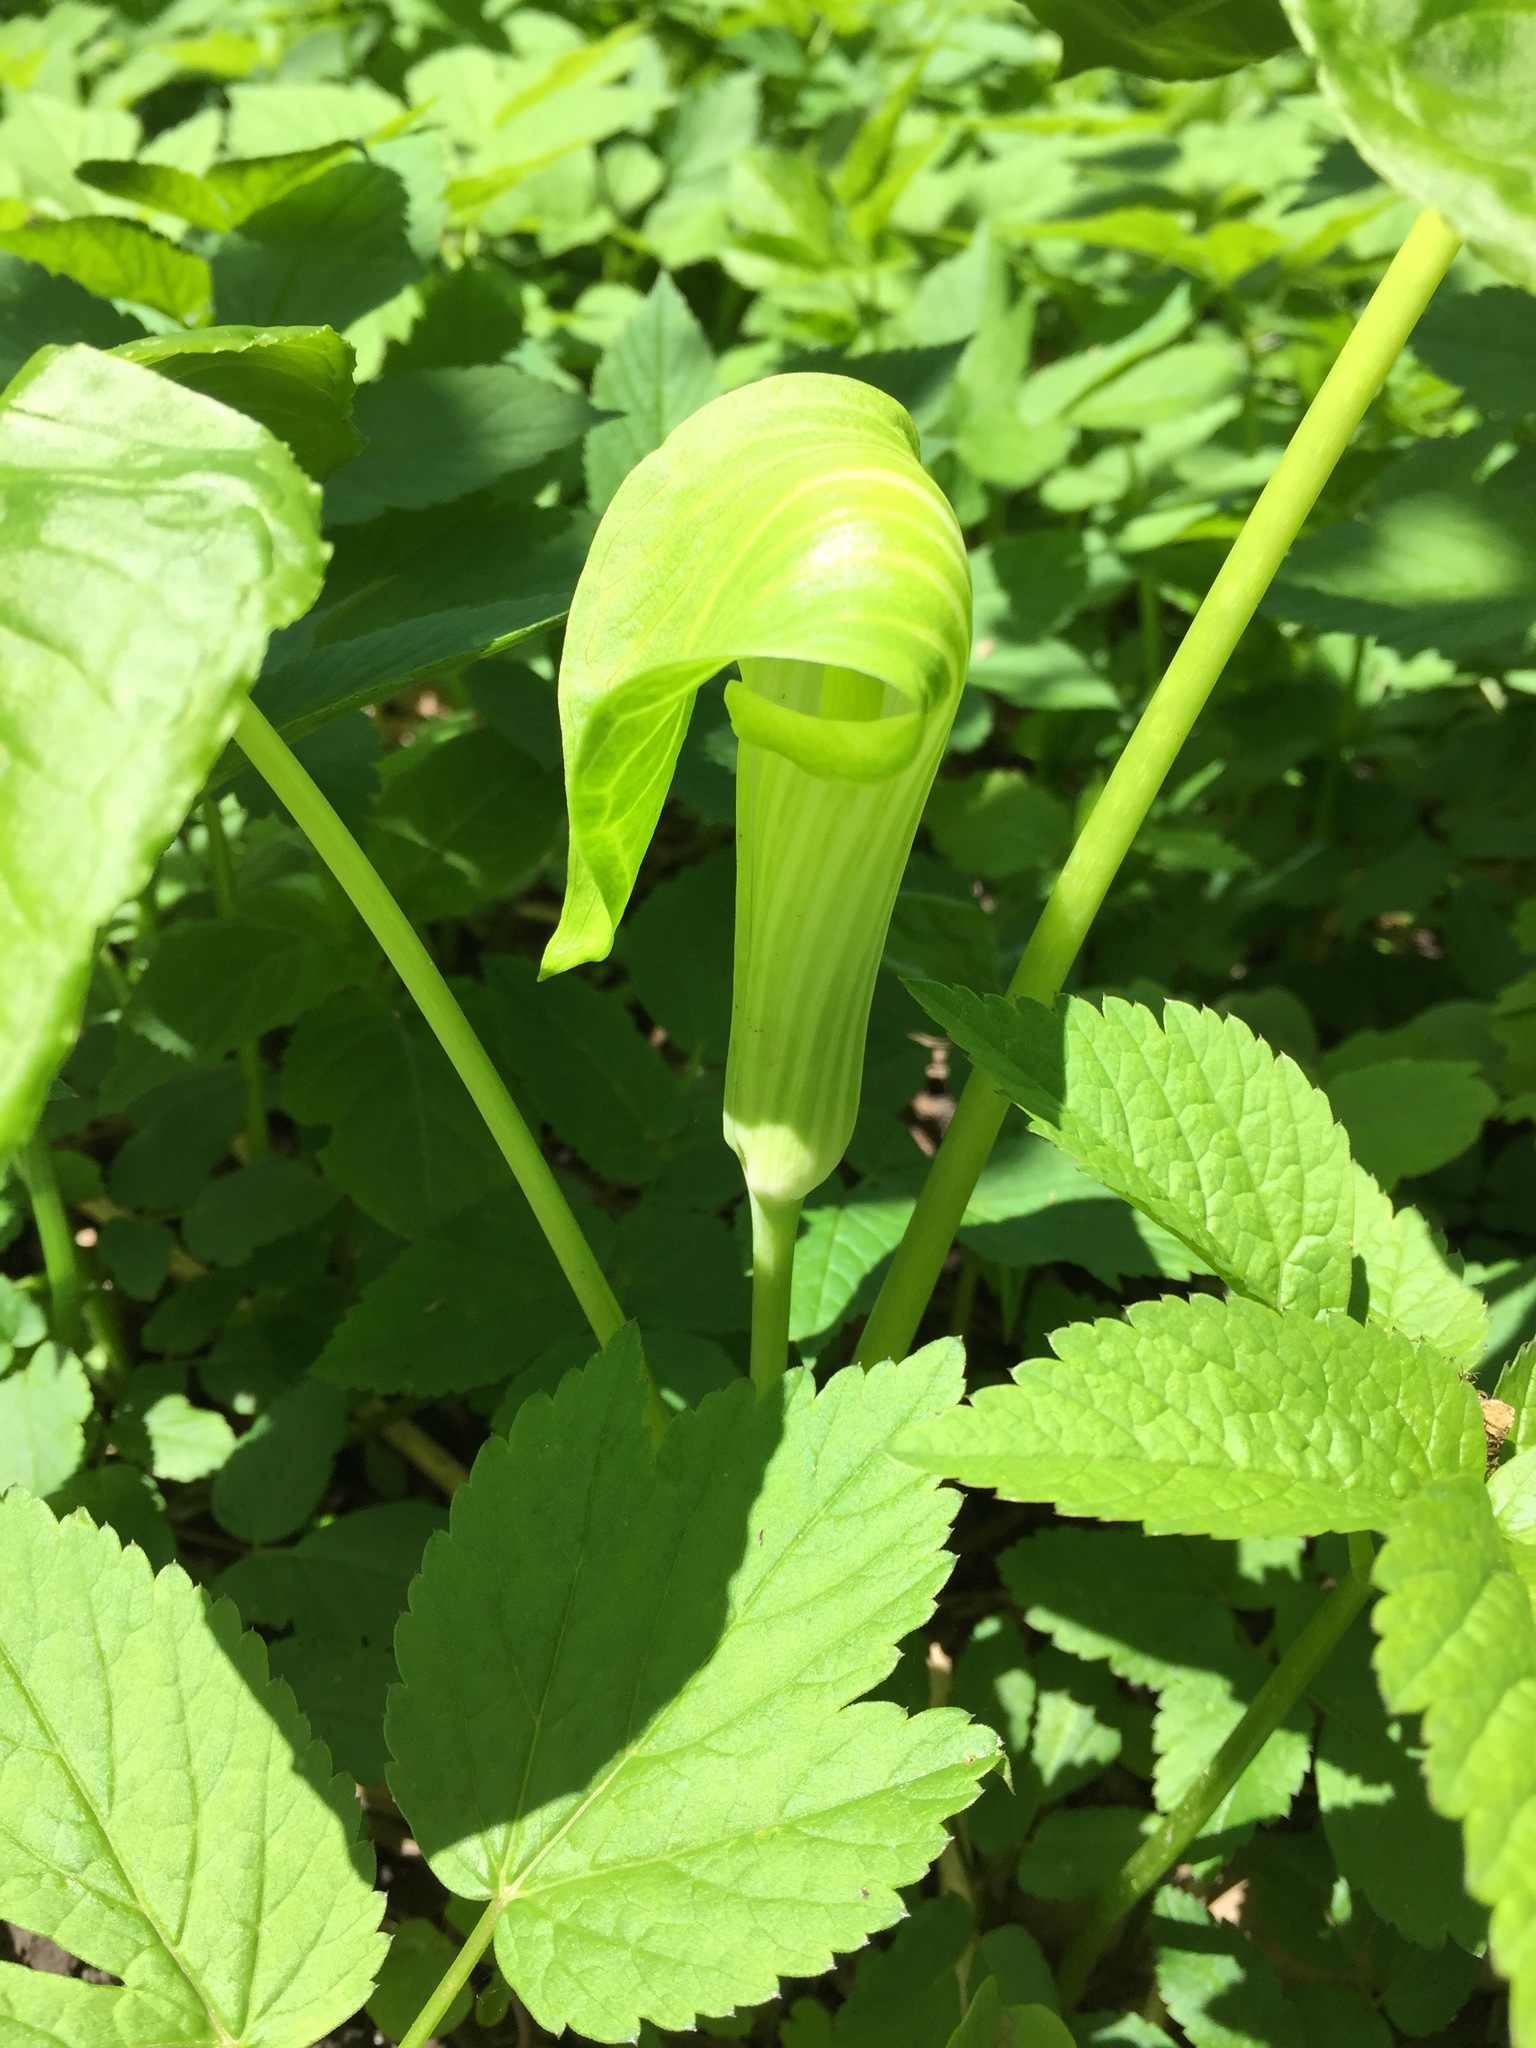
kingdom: Plantae
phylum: Tracheophyta
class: Liliopsida
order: Alismatales
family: Araceae
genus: Arisaema
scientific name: Arisaema triphyllum
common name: Jack-in-the-pulpit
